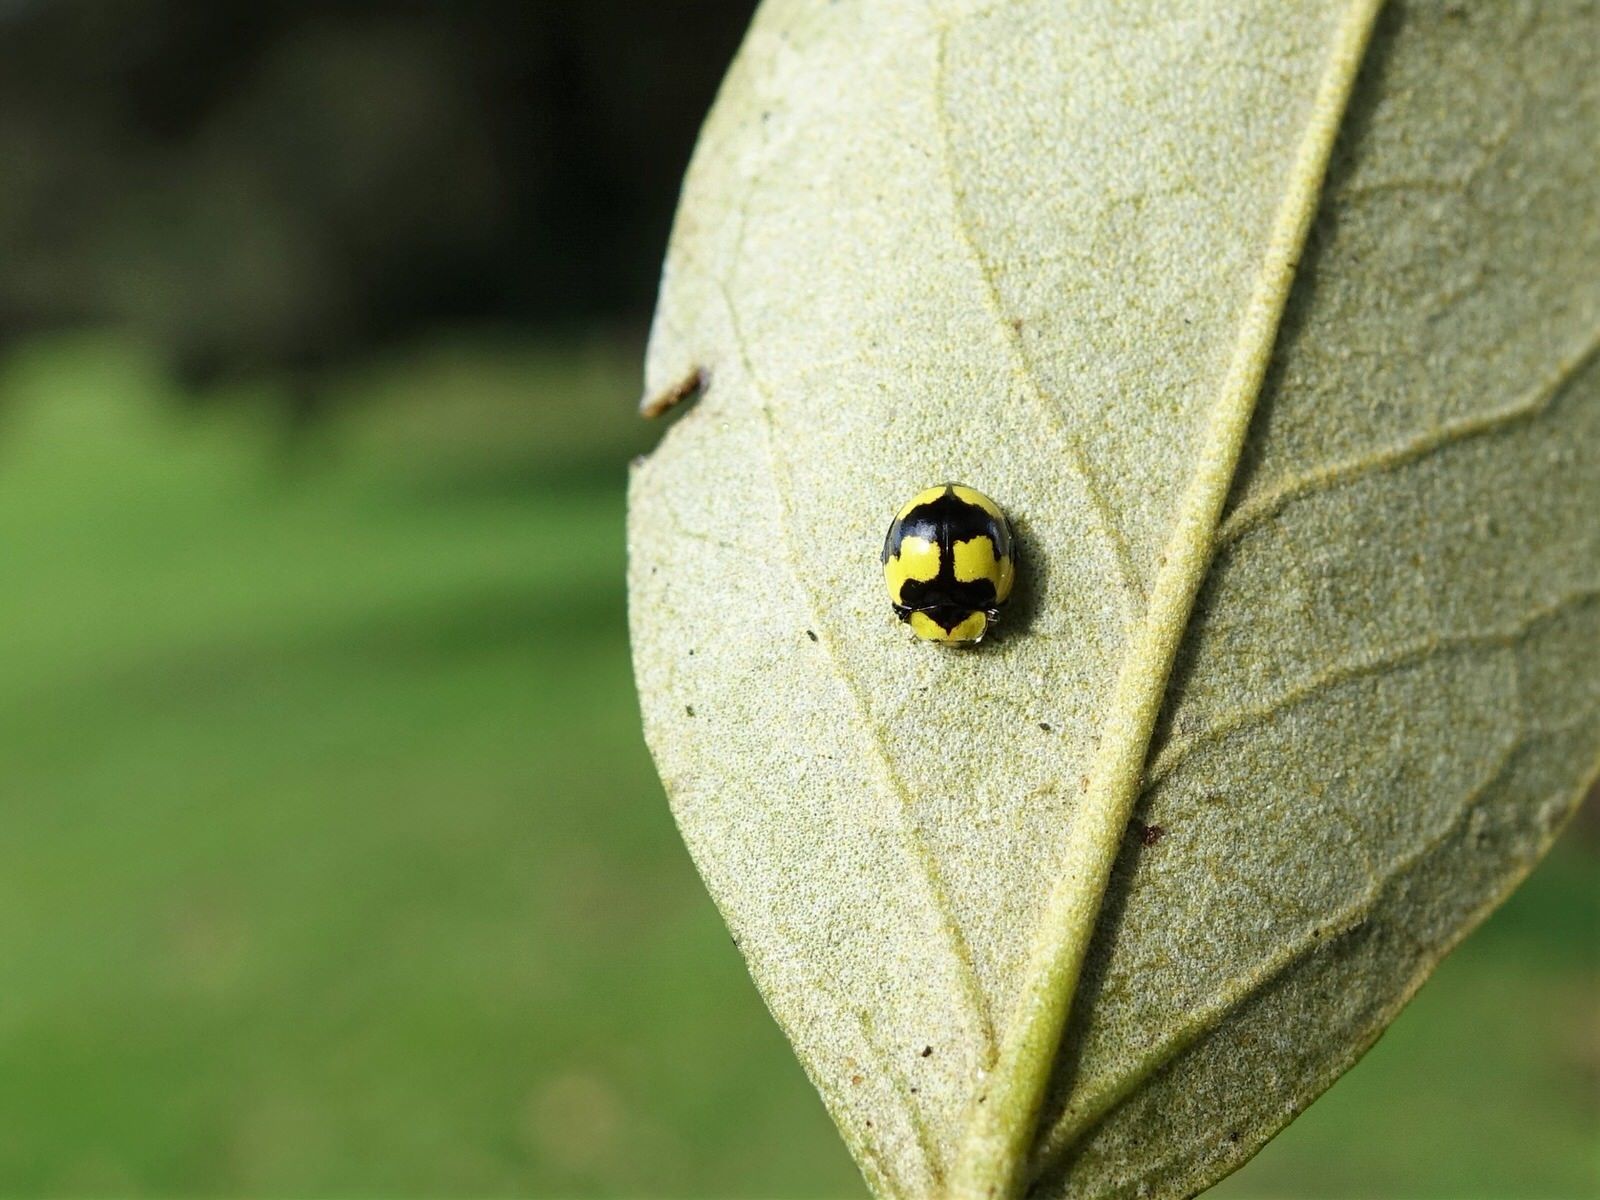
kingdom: Animalia
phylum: Arthropoda
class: Insecta
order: Coleoptera
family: Coccinellidae
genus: Illeis
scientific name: Illeis galbula
